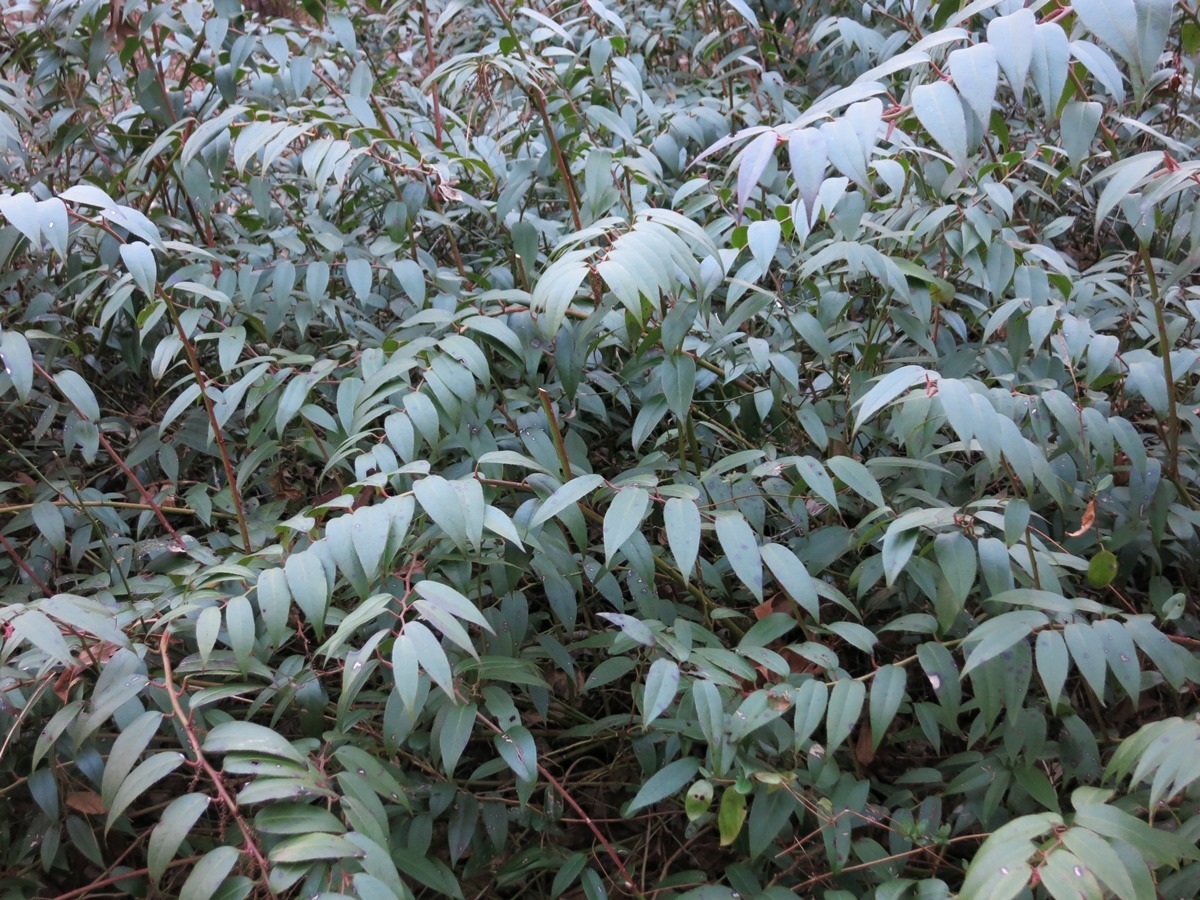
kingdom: Plantae
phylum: Tracheophyta
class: Magnoliopsida
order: Ericales
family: Ericaceae
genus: Leucothoe
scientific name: Leucothoe fontanesiana
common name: Fetterbush
